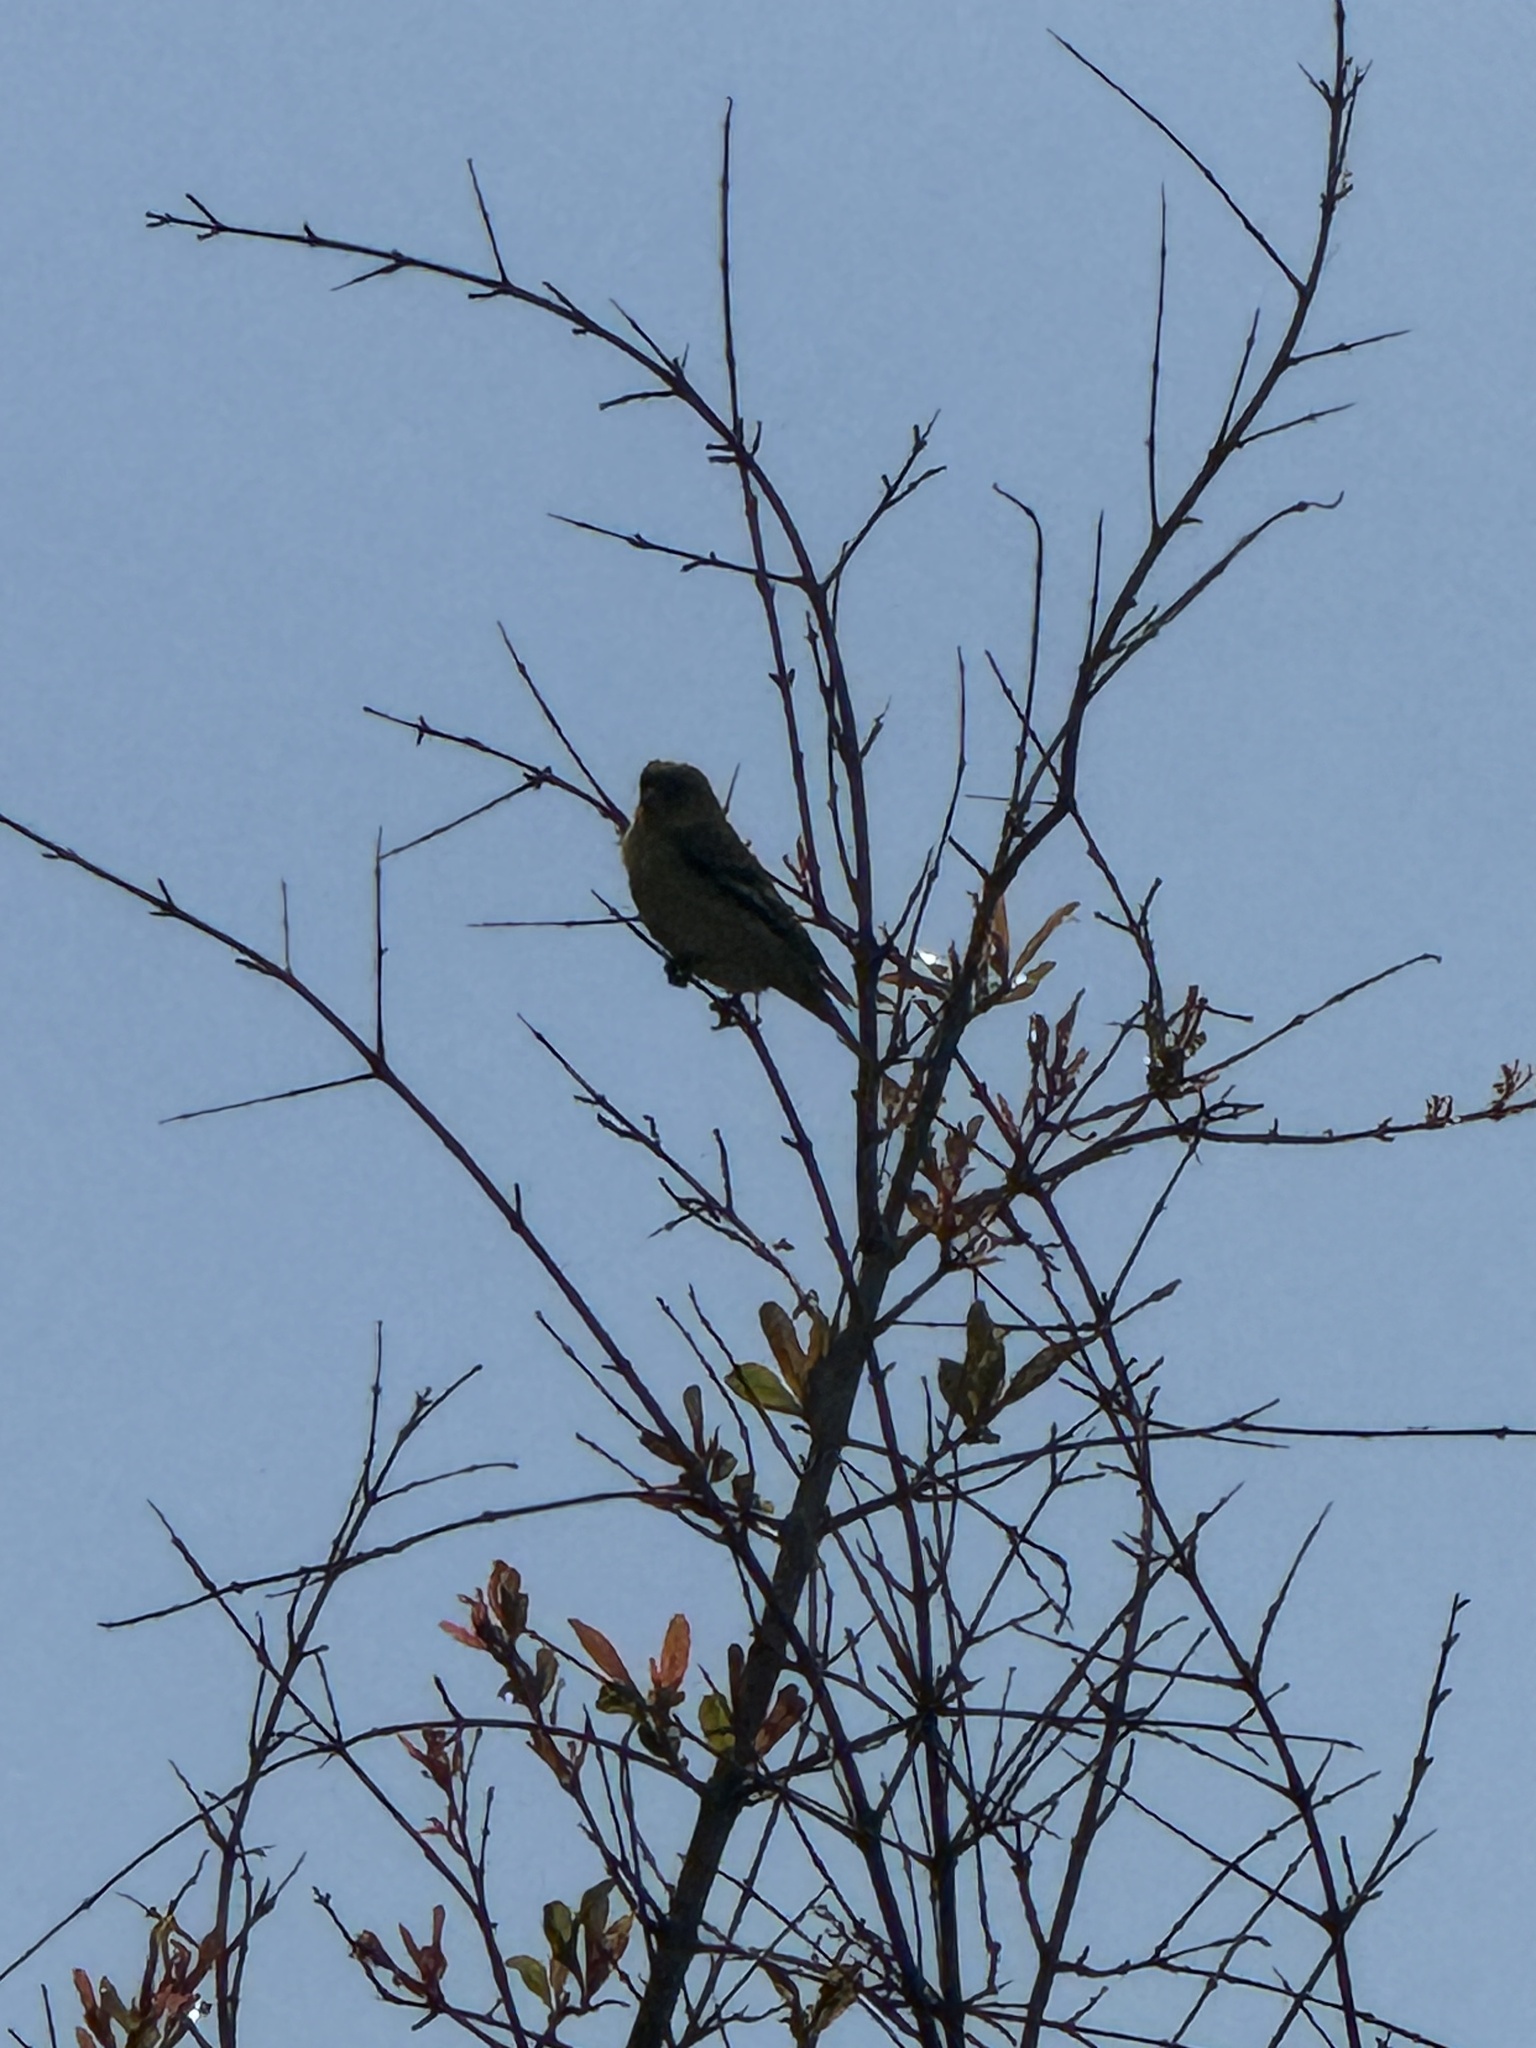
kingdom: Animalia
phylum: Chordata
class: Aves
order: Passeriformes
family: Fringillidae
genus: Spinus
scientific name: Spinus psaltria
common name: Lesser goldfinch
